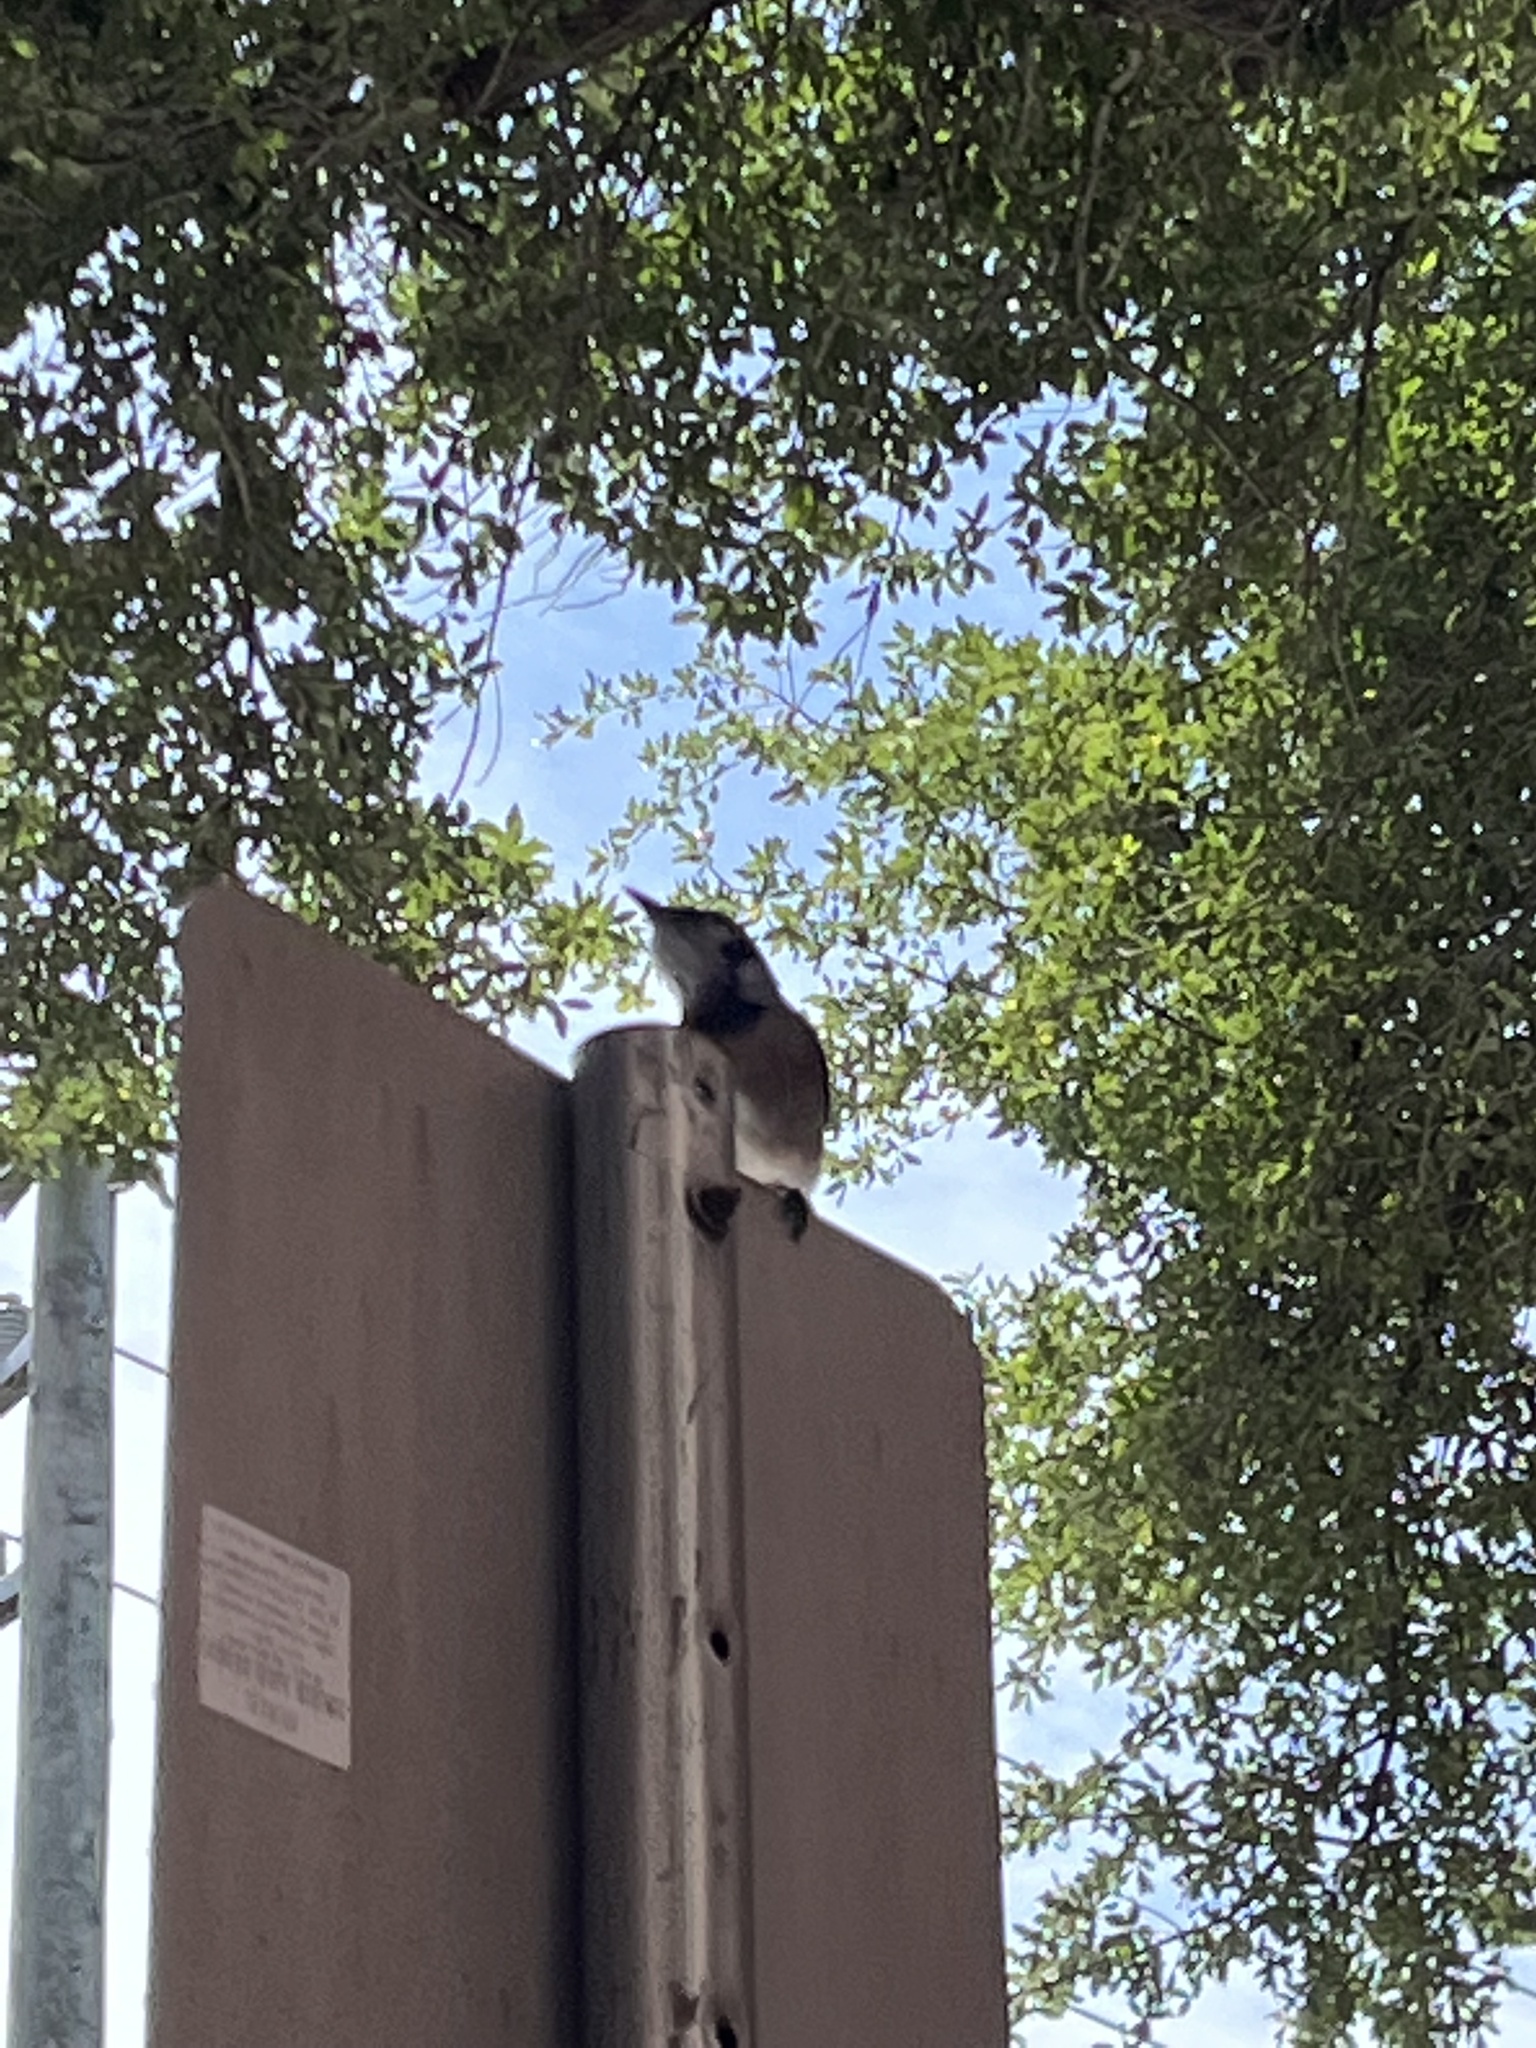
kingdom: Animalia
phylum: Chordata
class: Aves
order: Passeriformes
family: Corvidae
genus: Cyanocitta
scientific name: Cyanocitta cristata
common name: Blue jay
